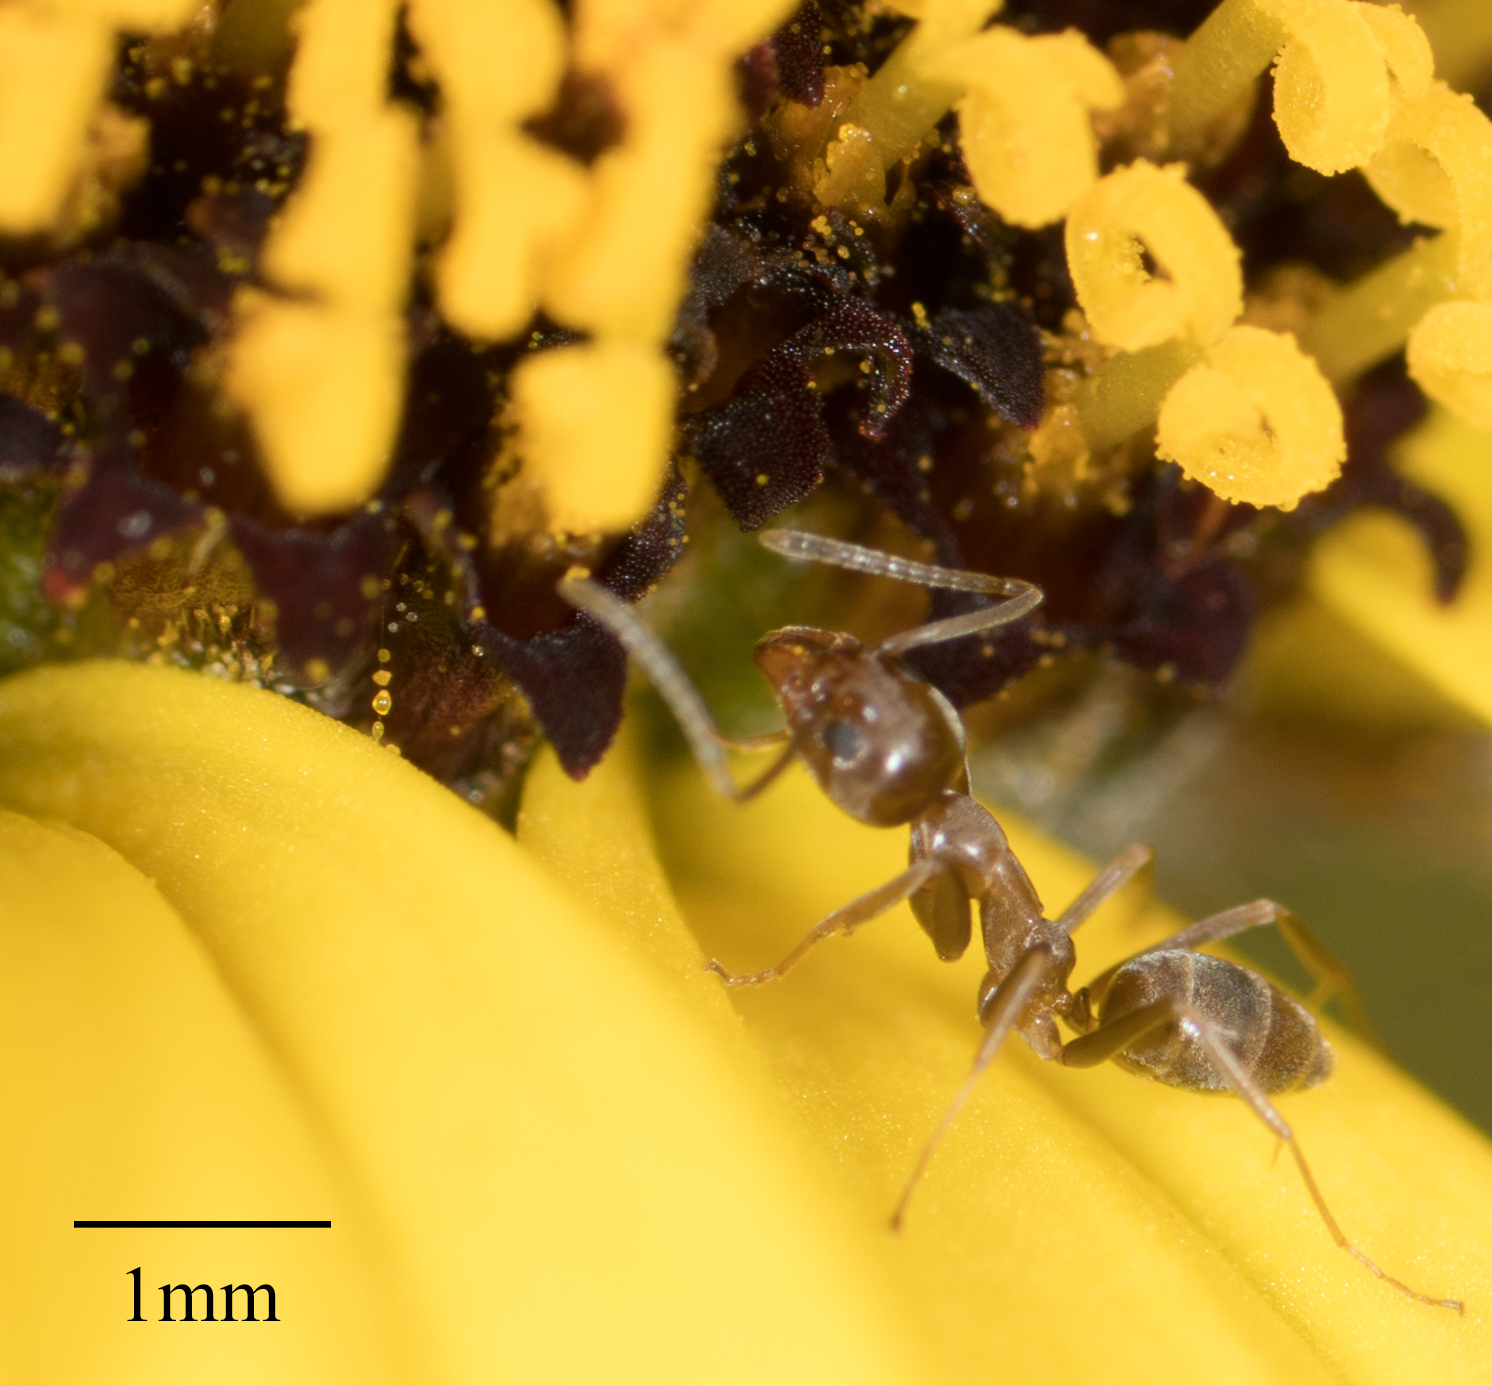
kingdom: Animalia
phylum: Arthropoda
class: Insecta
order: Hymenoptera
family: Formicidae
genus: Linepithema
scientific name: Linepithema humile
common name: Argentine ant
